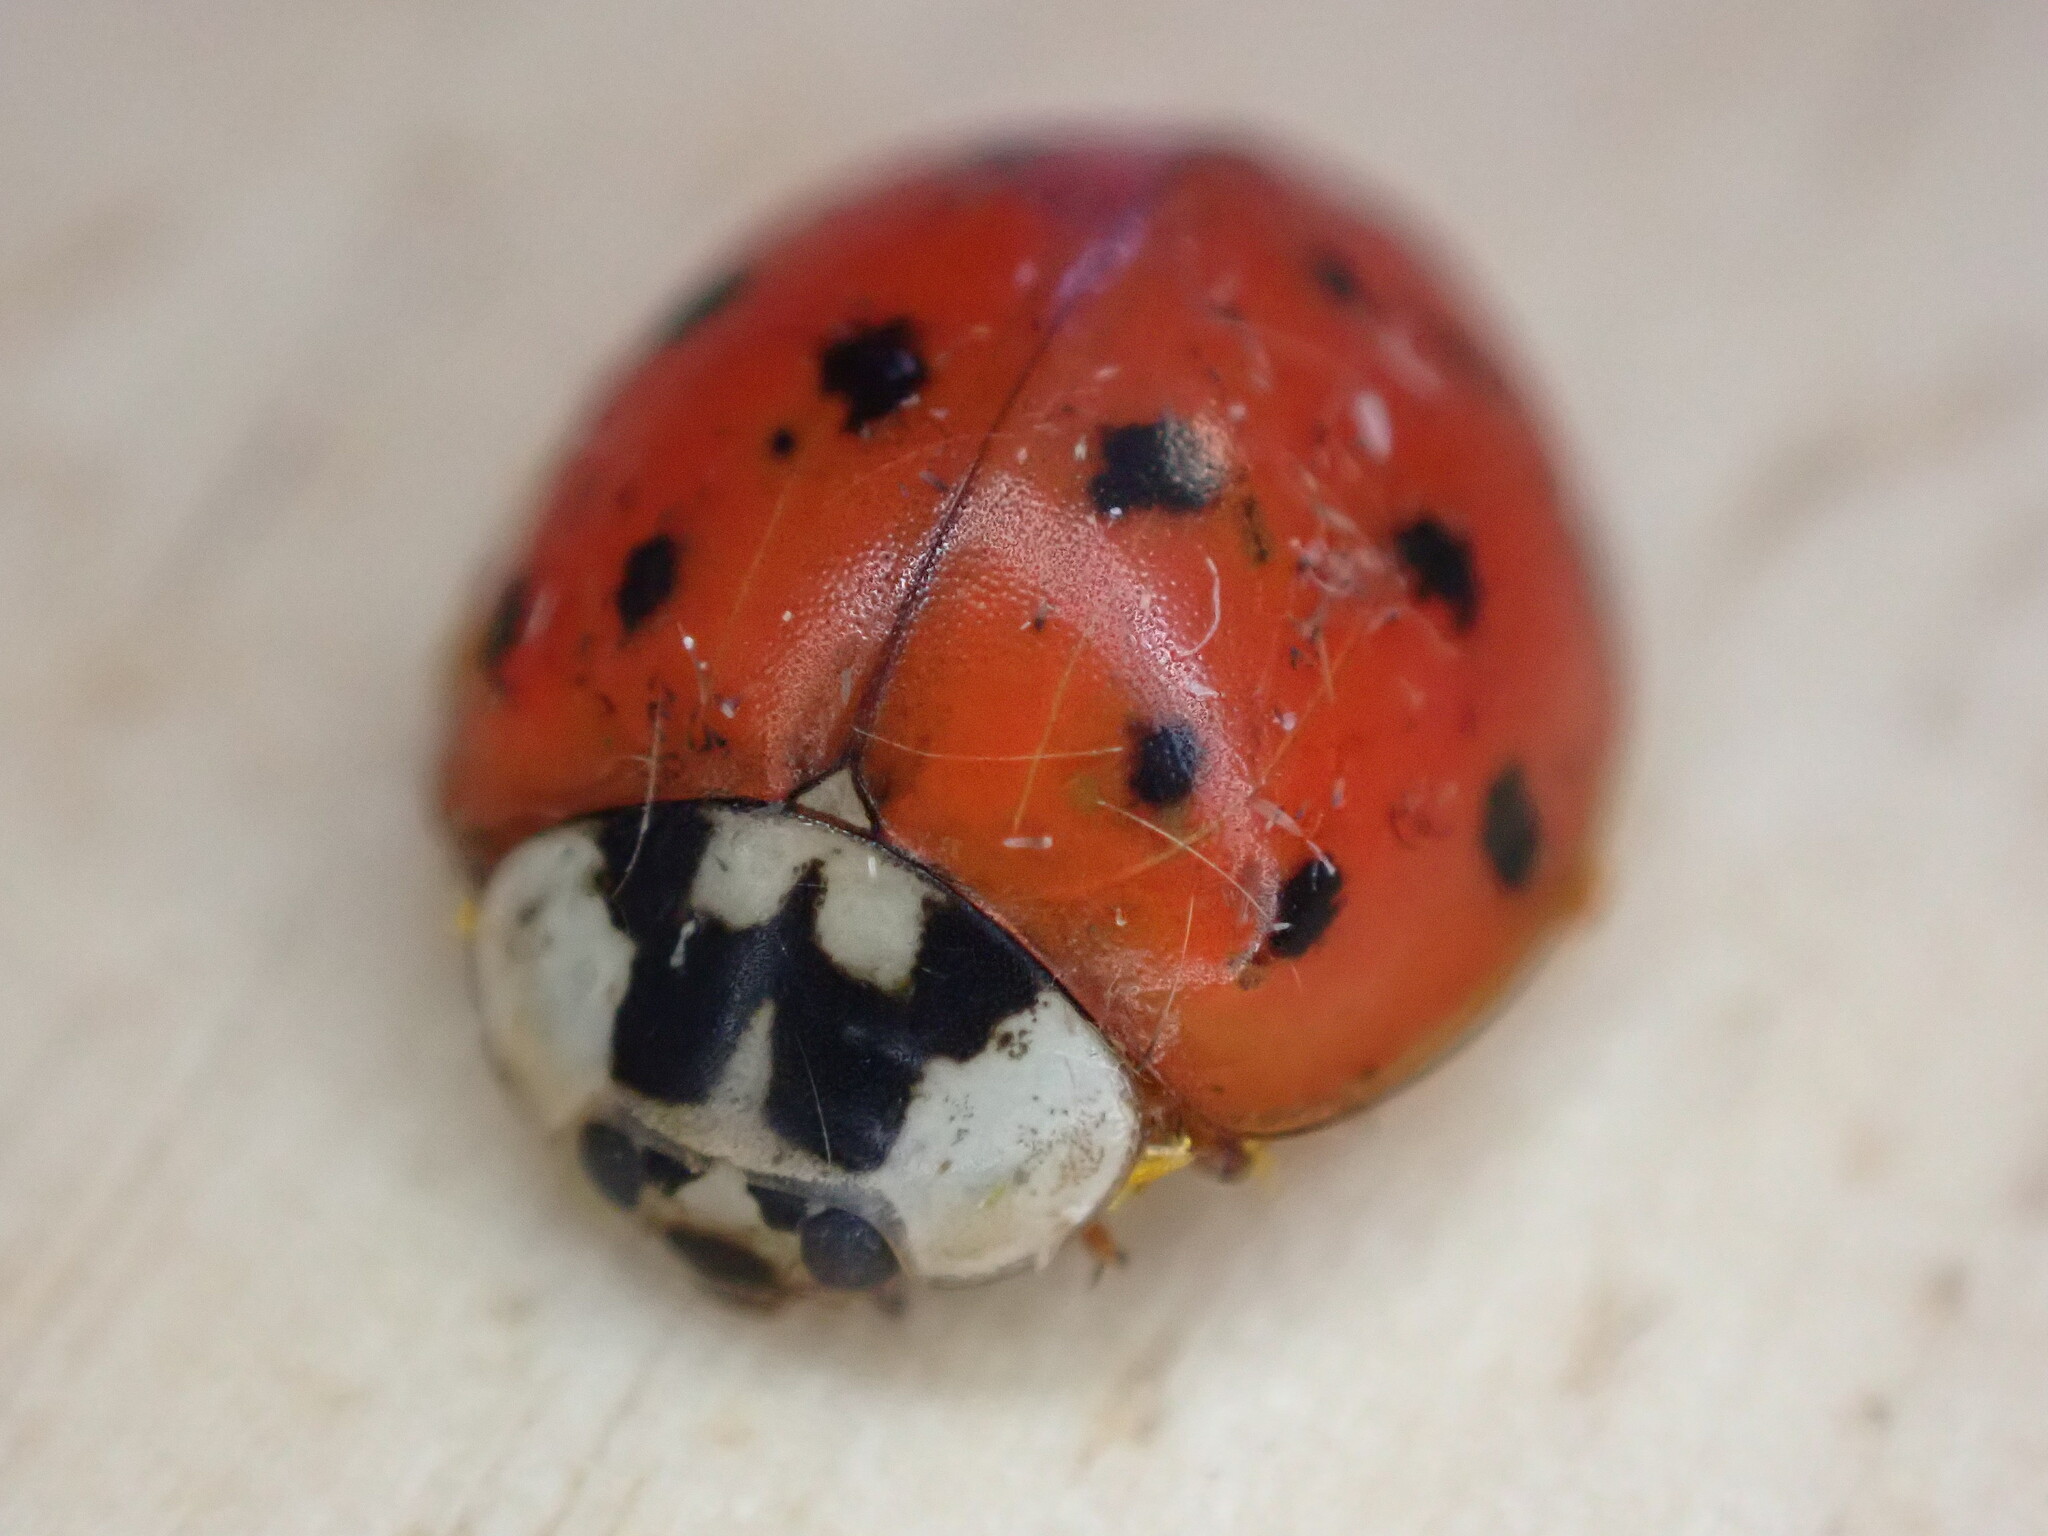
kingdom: Animalia
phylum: Arthropoda
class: Insecta
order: Coleoptera
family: Coccinellidae
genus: Harmonia
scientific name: Harmonia axyridis
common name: Harlequin ladybird
